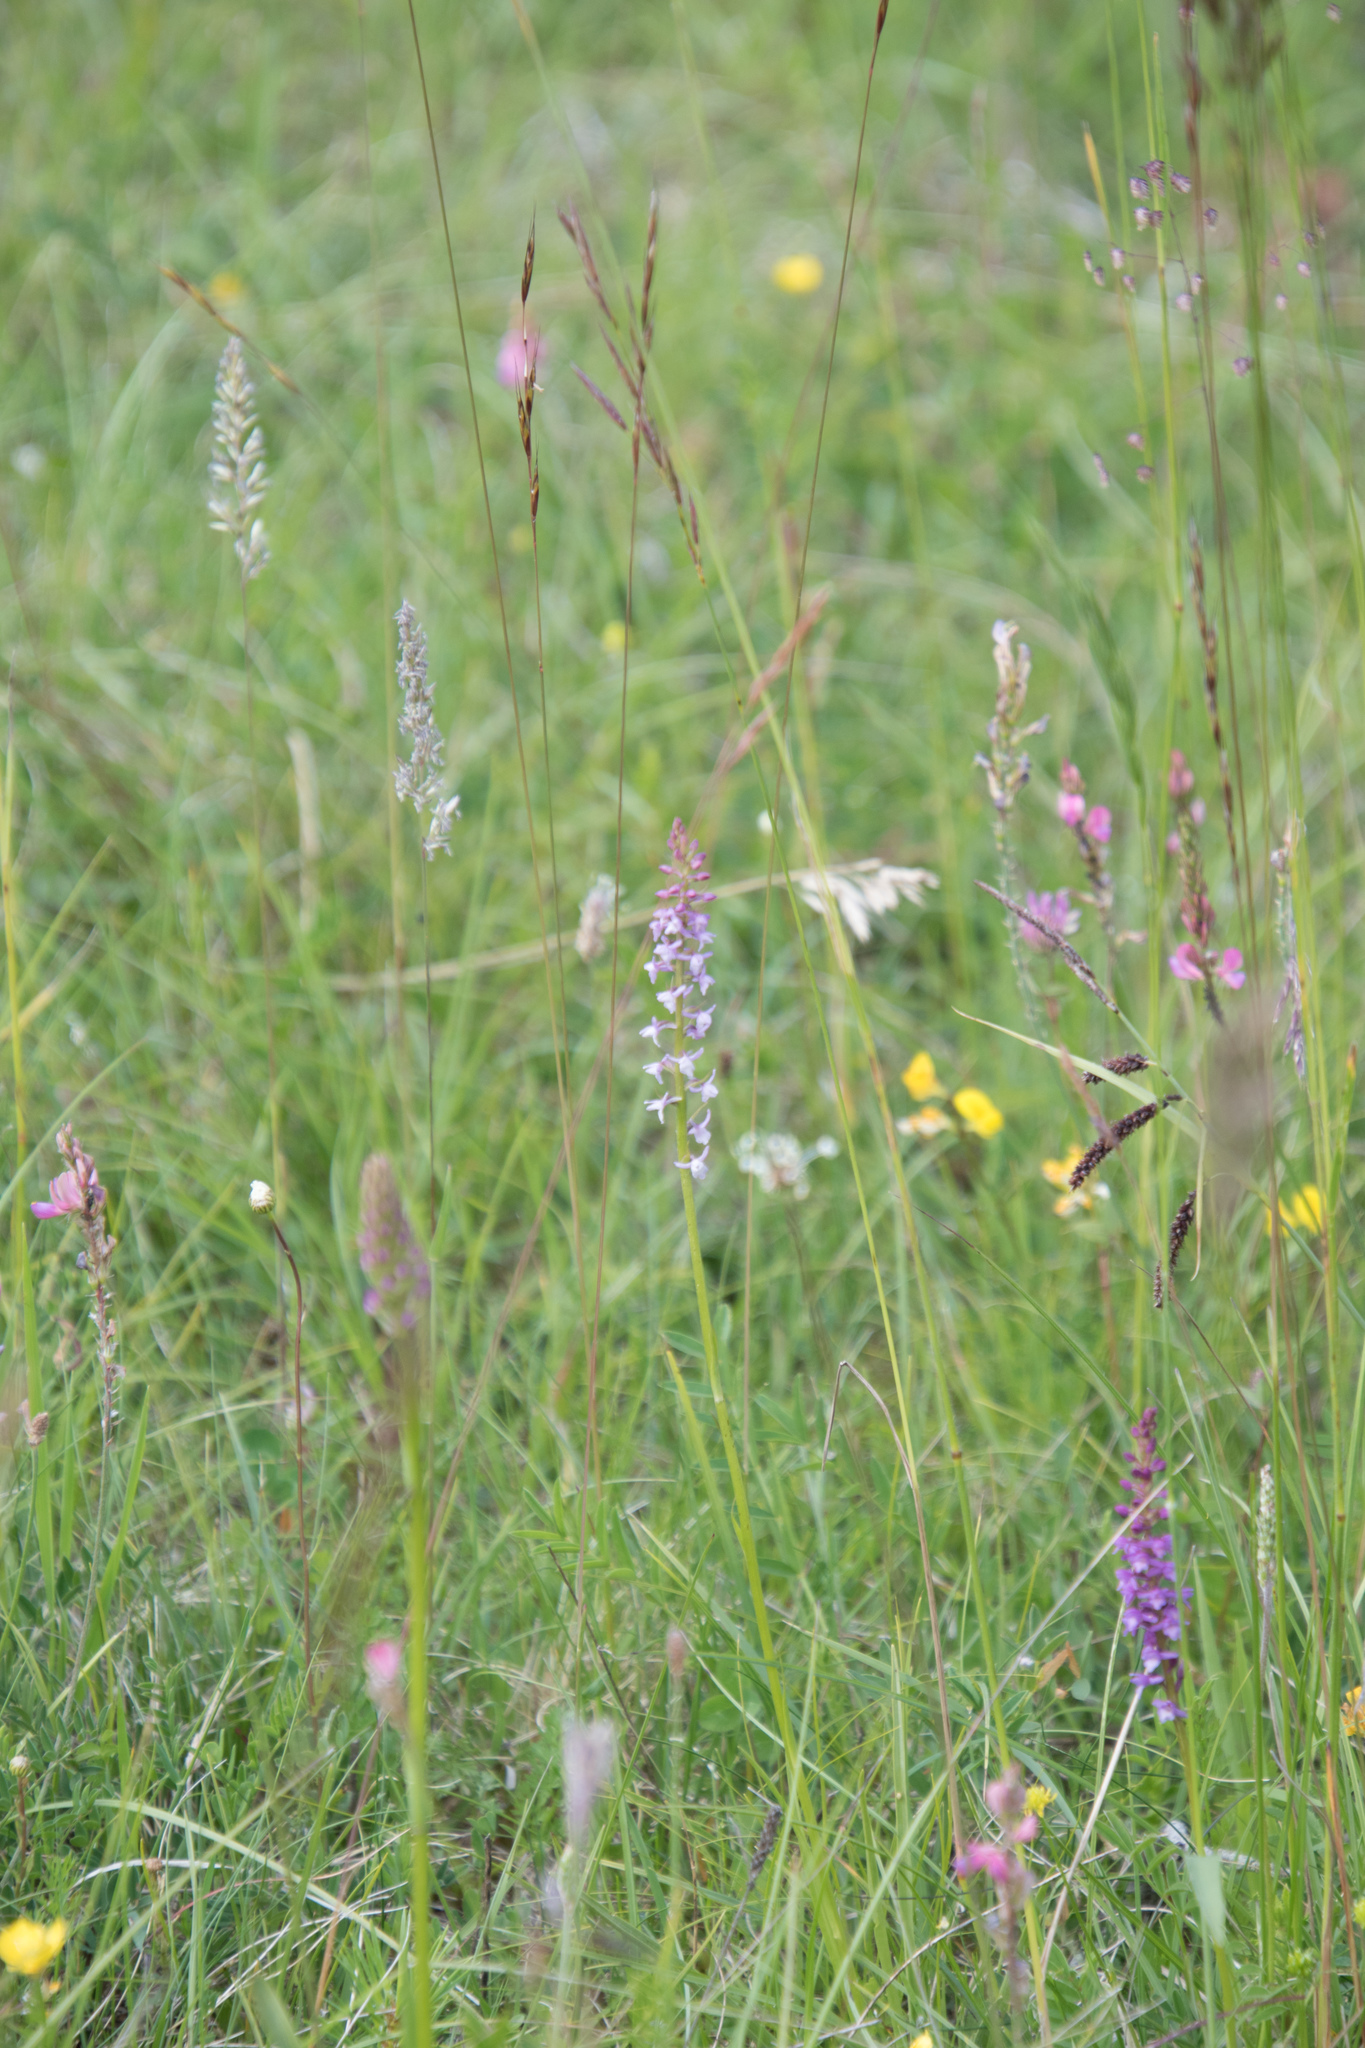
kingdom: Plantae
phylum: Tracheophyta
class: Liliopsida
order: Asparagales
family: Orchidaceae
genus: Gymnadenia
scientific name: Gymnadenia odoratissima
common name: Scented gymnadenia
